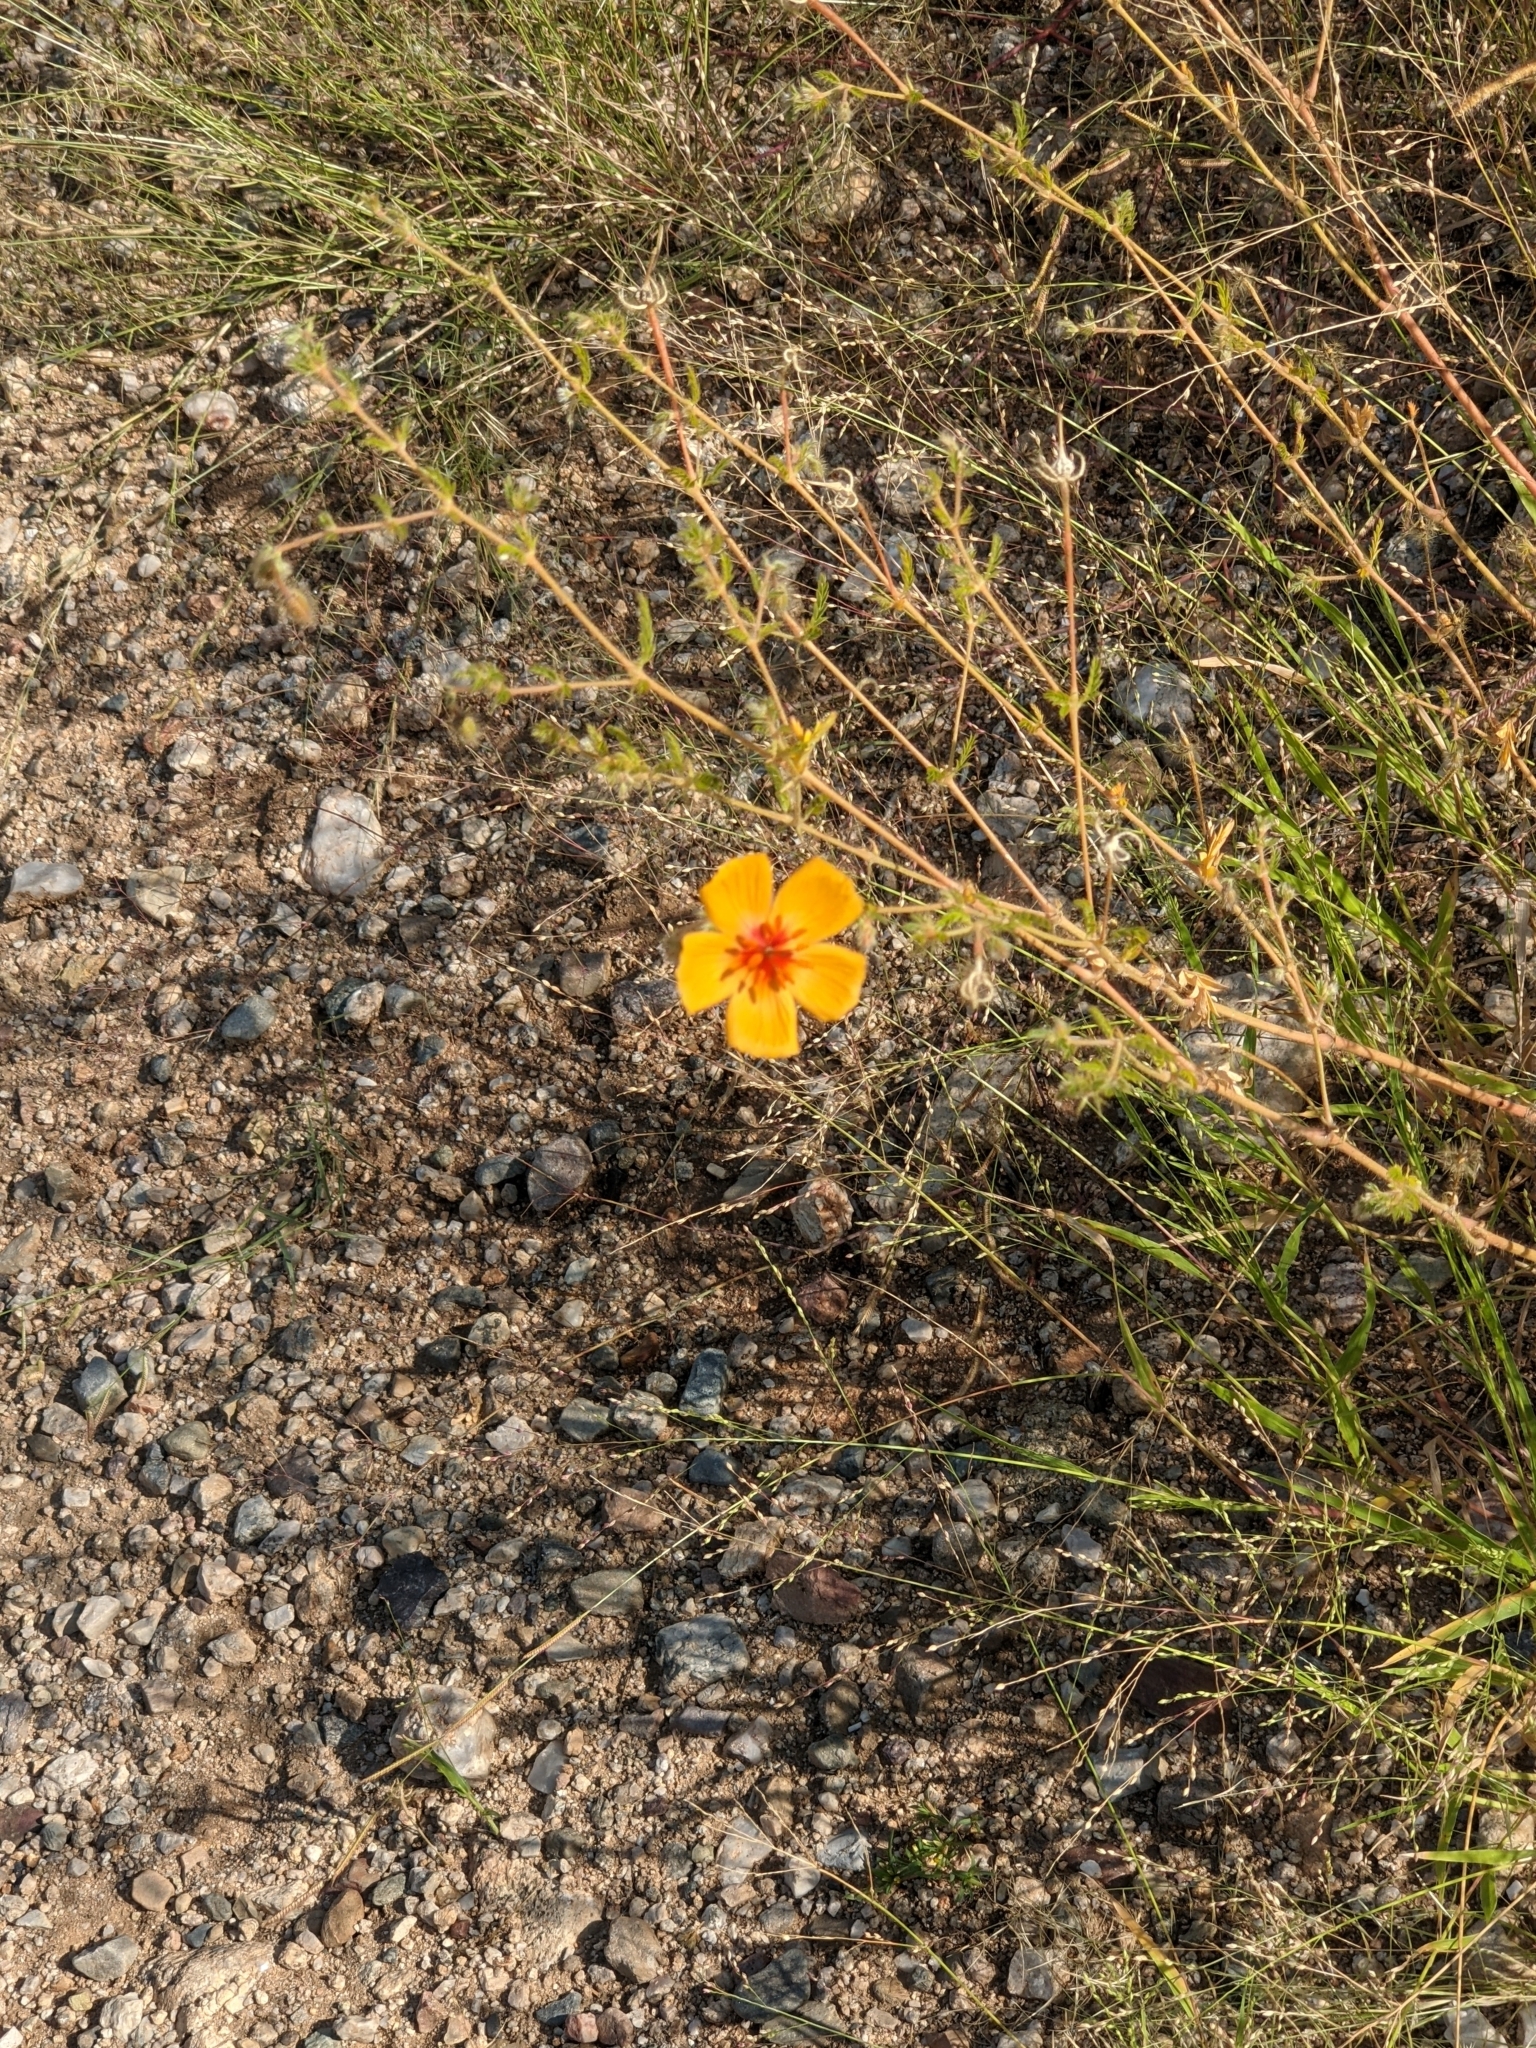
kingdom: Plantae
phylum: Tracheophyta
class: Magnoliopsida
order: Zygophyllales
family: Zygophyllaceae
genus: Kallstroemia
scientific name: Kallstroemia grandiflora
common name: Arizona-poppy
